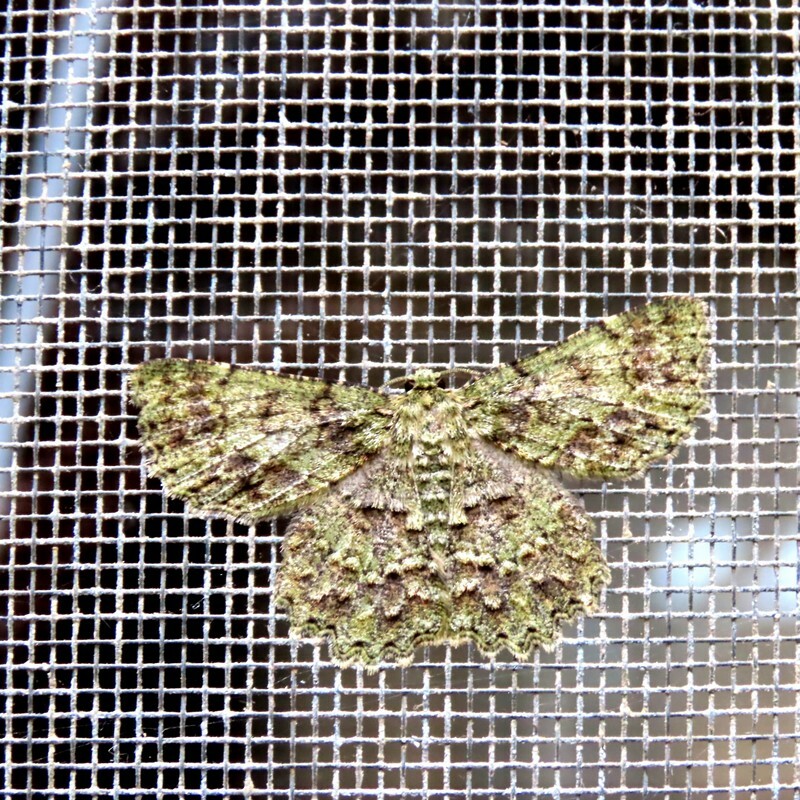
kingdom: Animalia
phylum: Arthropoda
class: Insecta
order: Lepidoptera
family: Geometridae
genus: Hypodoxa
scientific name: Hypodoxa muscosaria
